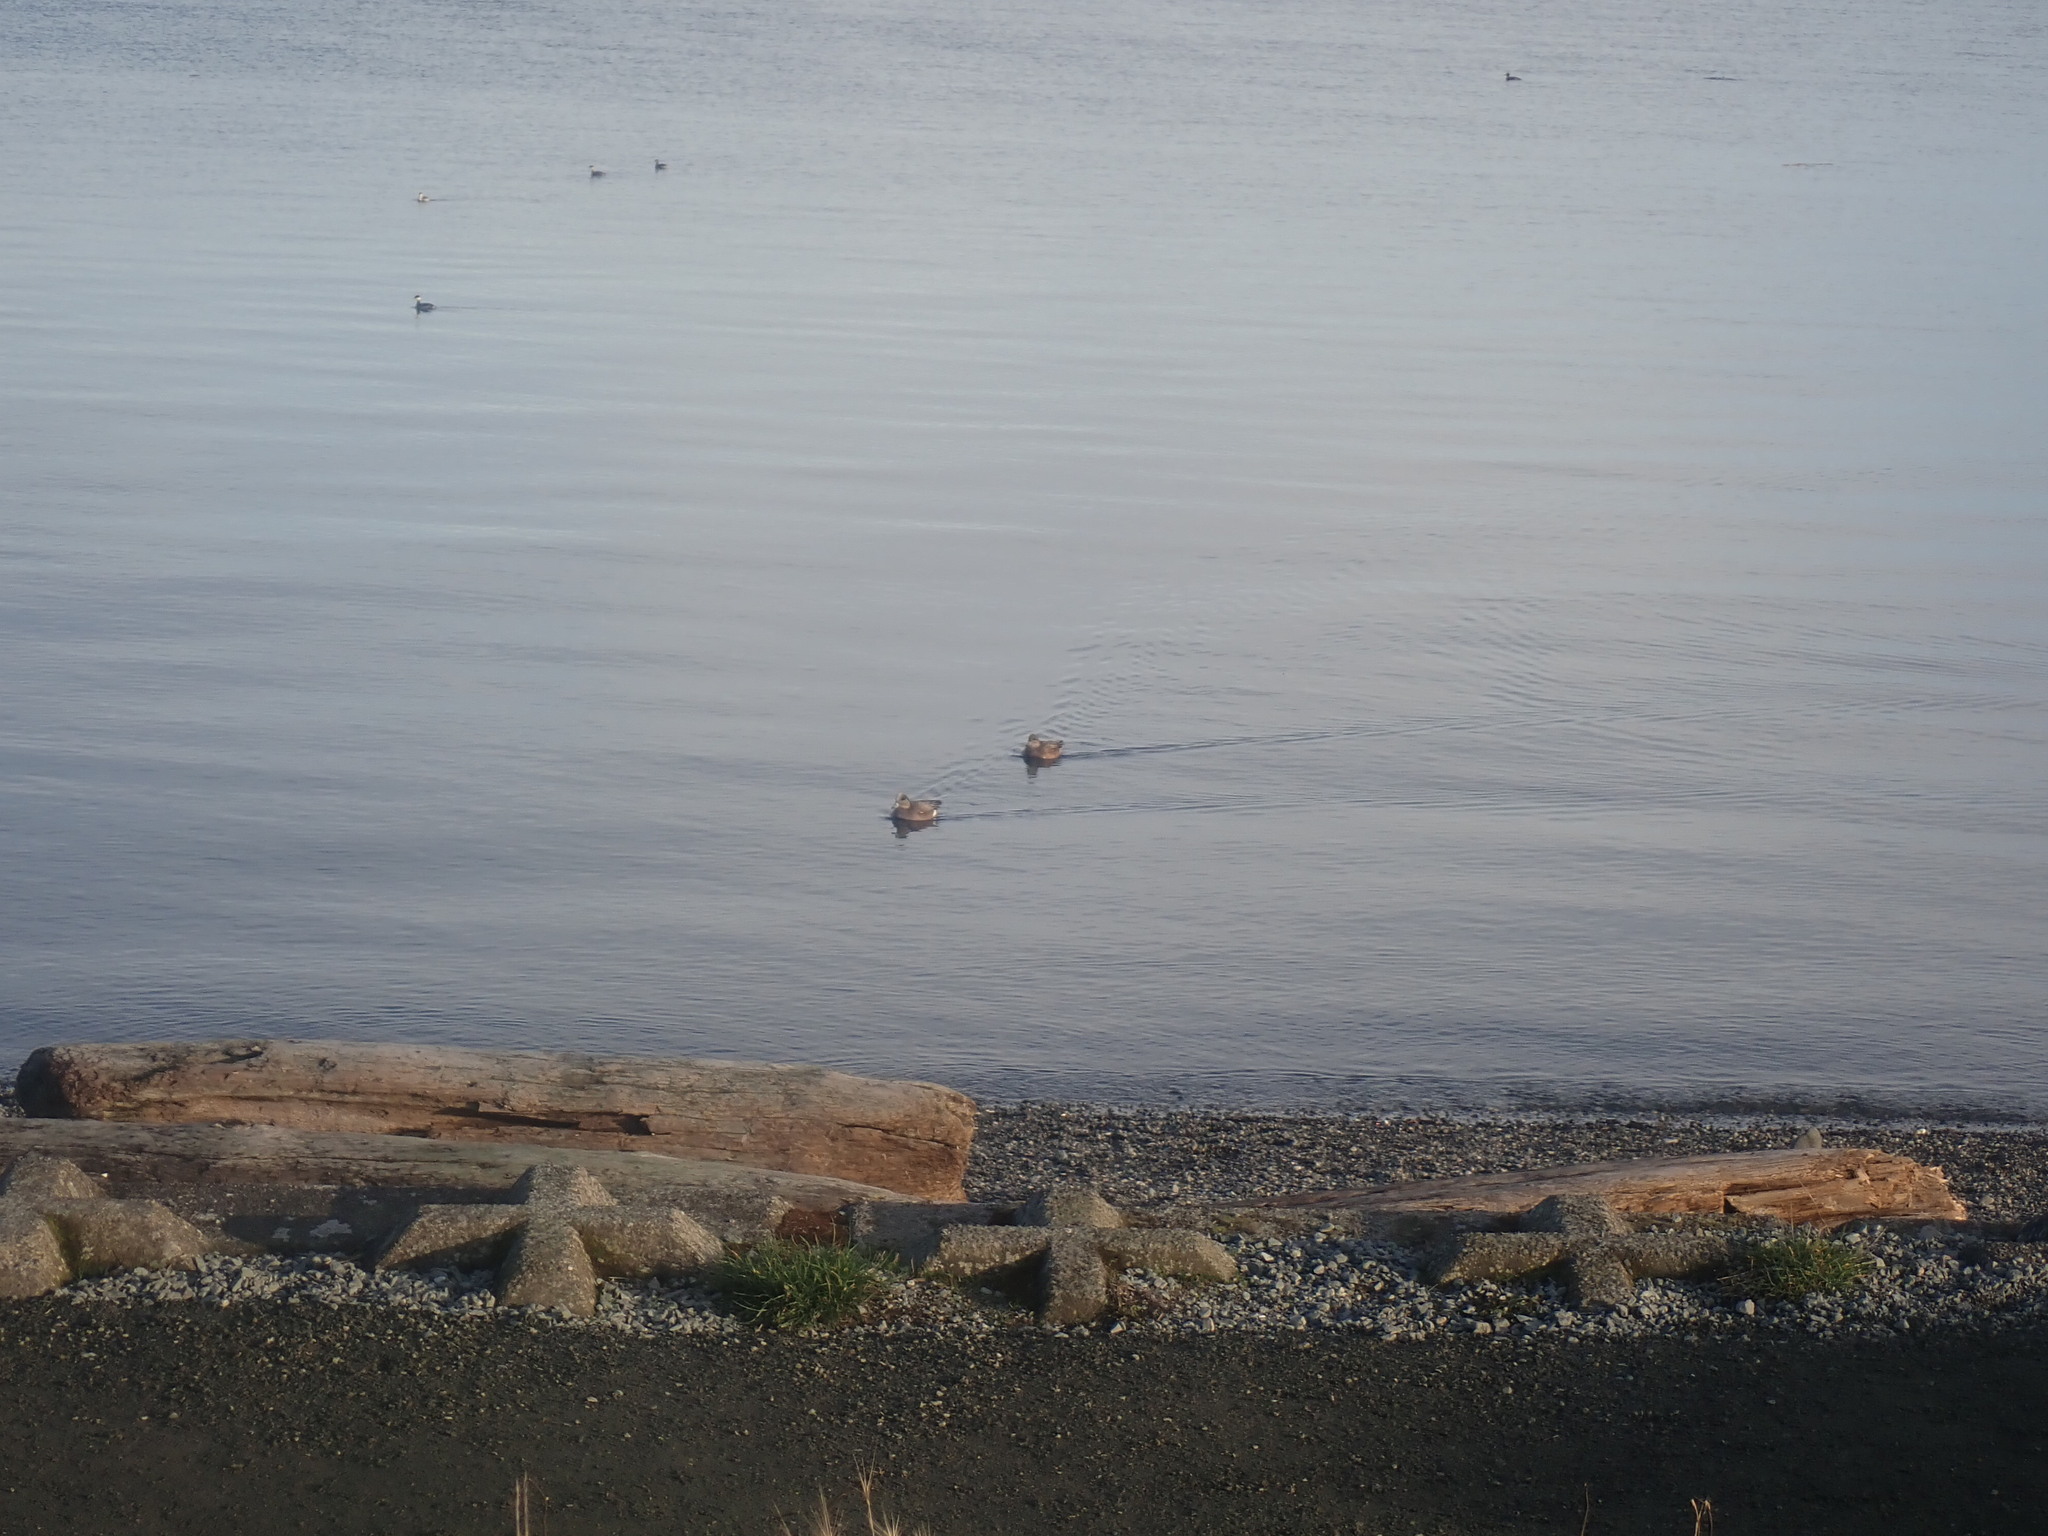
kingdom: Animalia
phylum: Chordata
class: Aves
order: Anseriformes
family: Anatidae
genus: Mareca
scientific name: Mareca americana
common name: American wigeon
